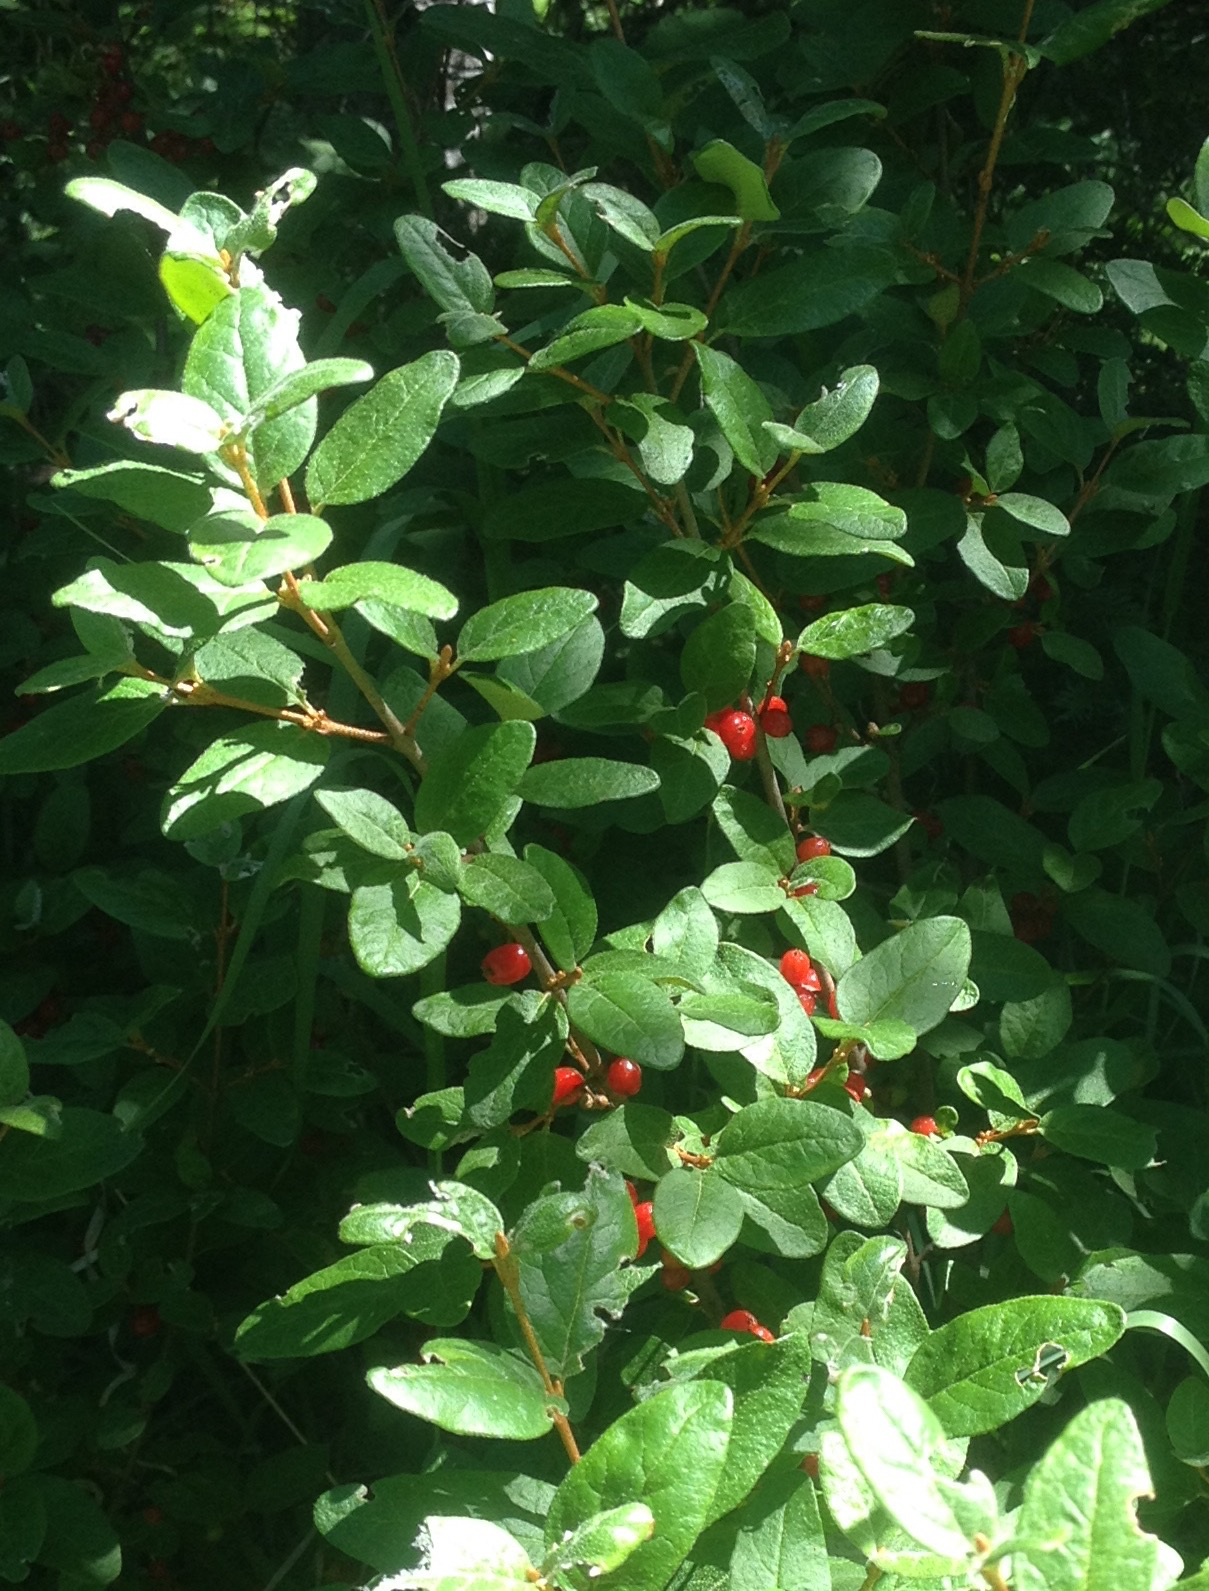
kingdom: Plantae
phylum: Tracheophyta
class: Magnoliopsida
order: Rosales
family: Elaeagnaceae
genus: Shepherdia
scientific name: Shepherdia canadensis
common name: Soapberry
